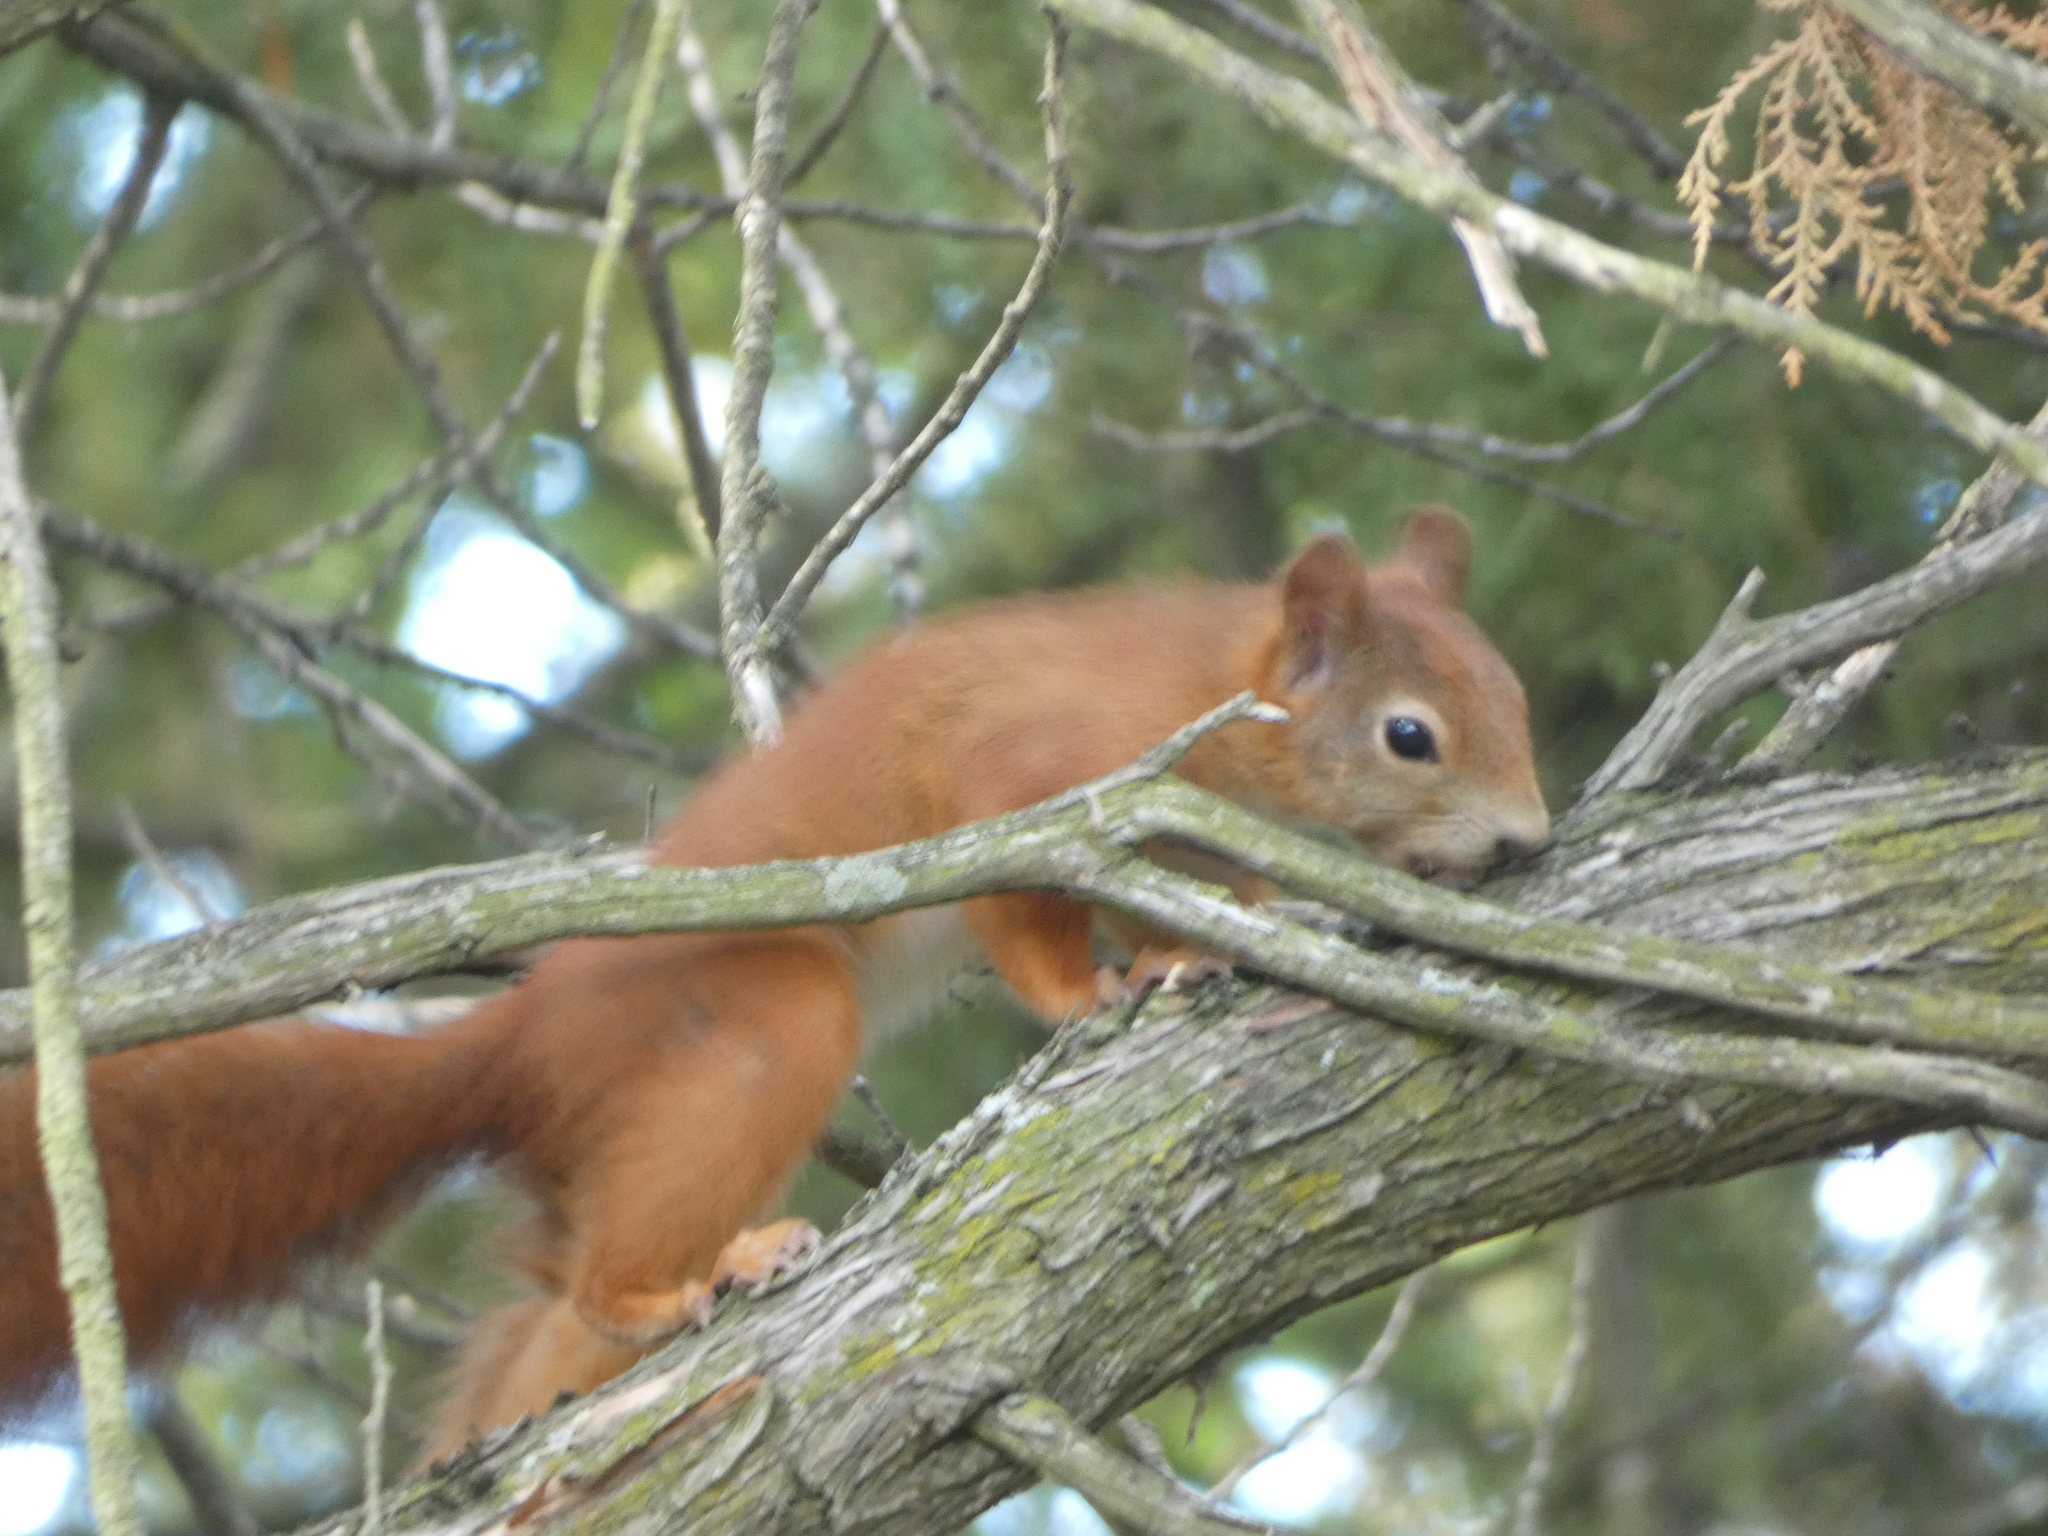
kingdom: Animalia
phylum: Chordata
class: Mammalia
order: Rodentia
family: Sciuridae
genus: Sciurus
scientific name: Sciurus vulgaris
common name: Eurasian red squirrel
